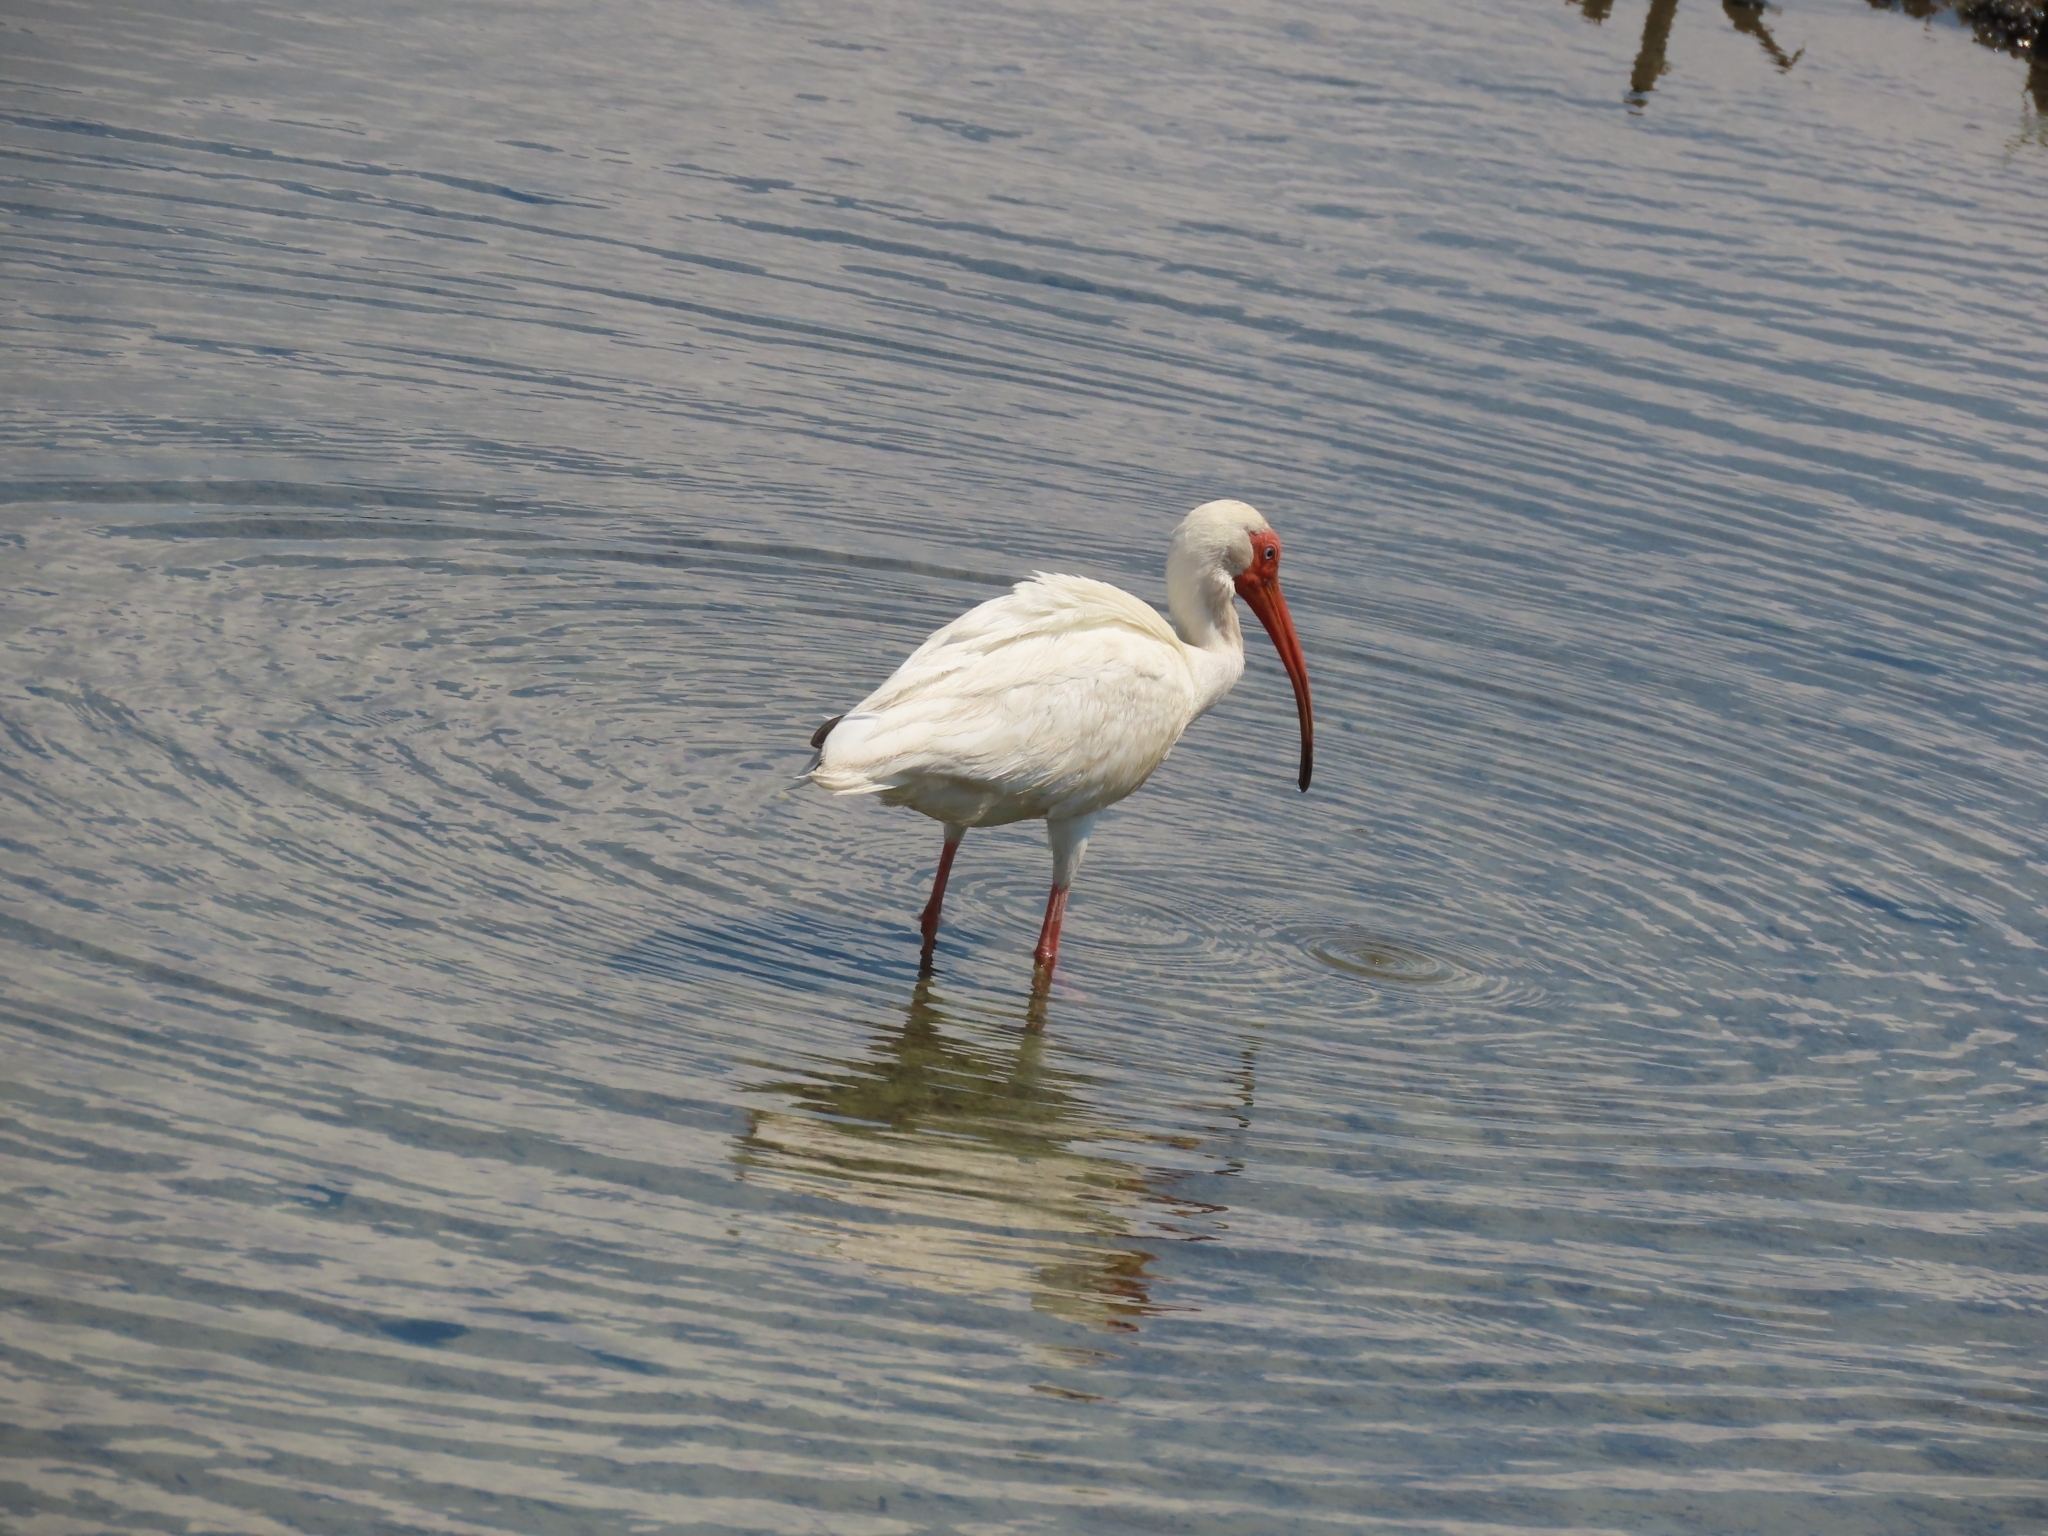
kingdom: Animalia
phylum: Chordata
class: Aves
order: Pelecaniformes
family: Threskiornithidae
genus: Eudocimus
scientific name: Eudocimus albus
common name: White ibis
